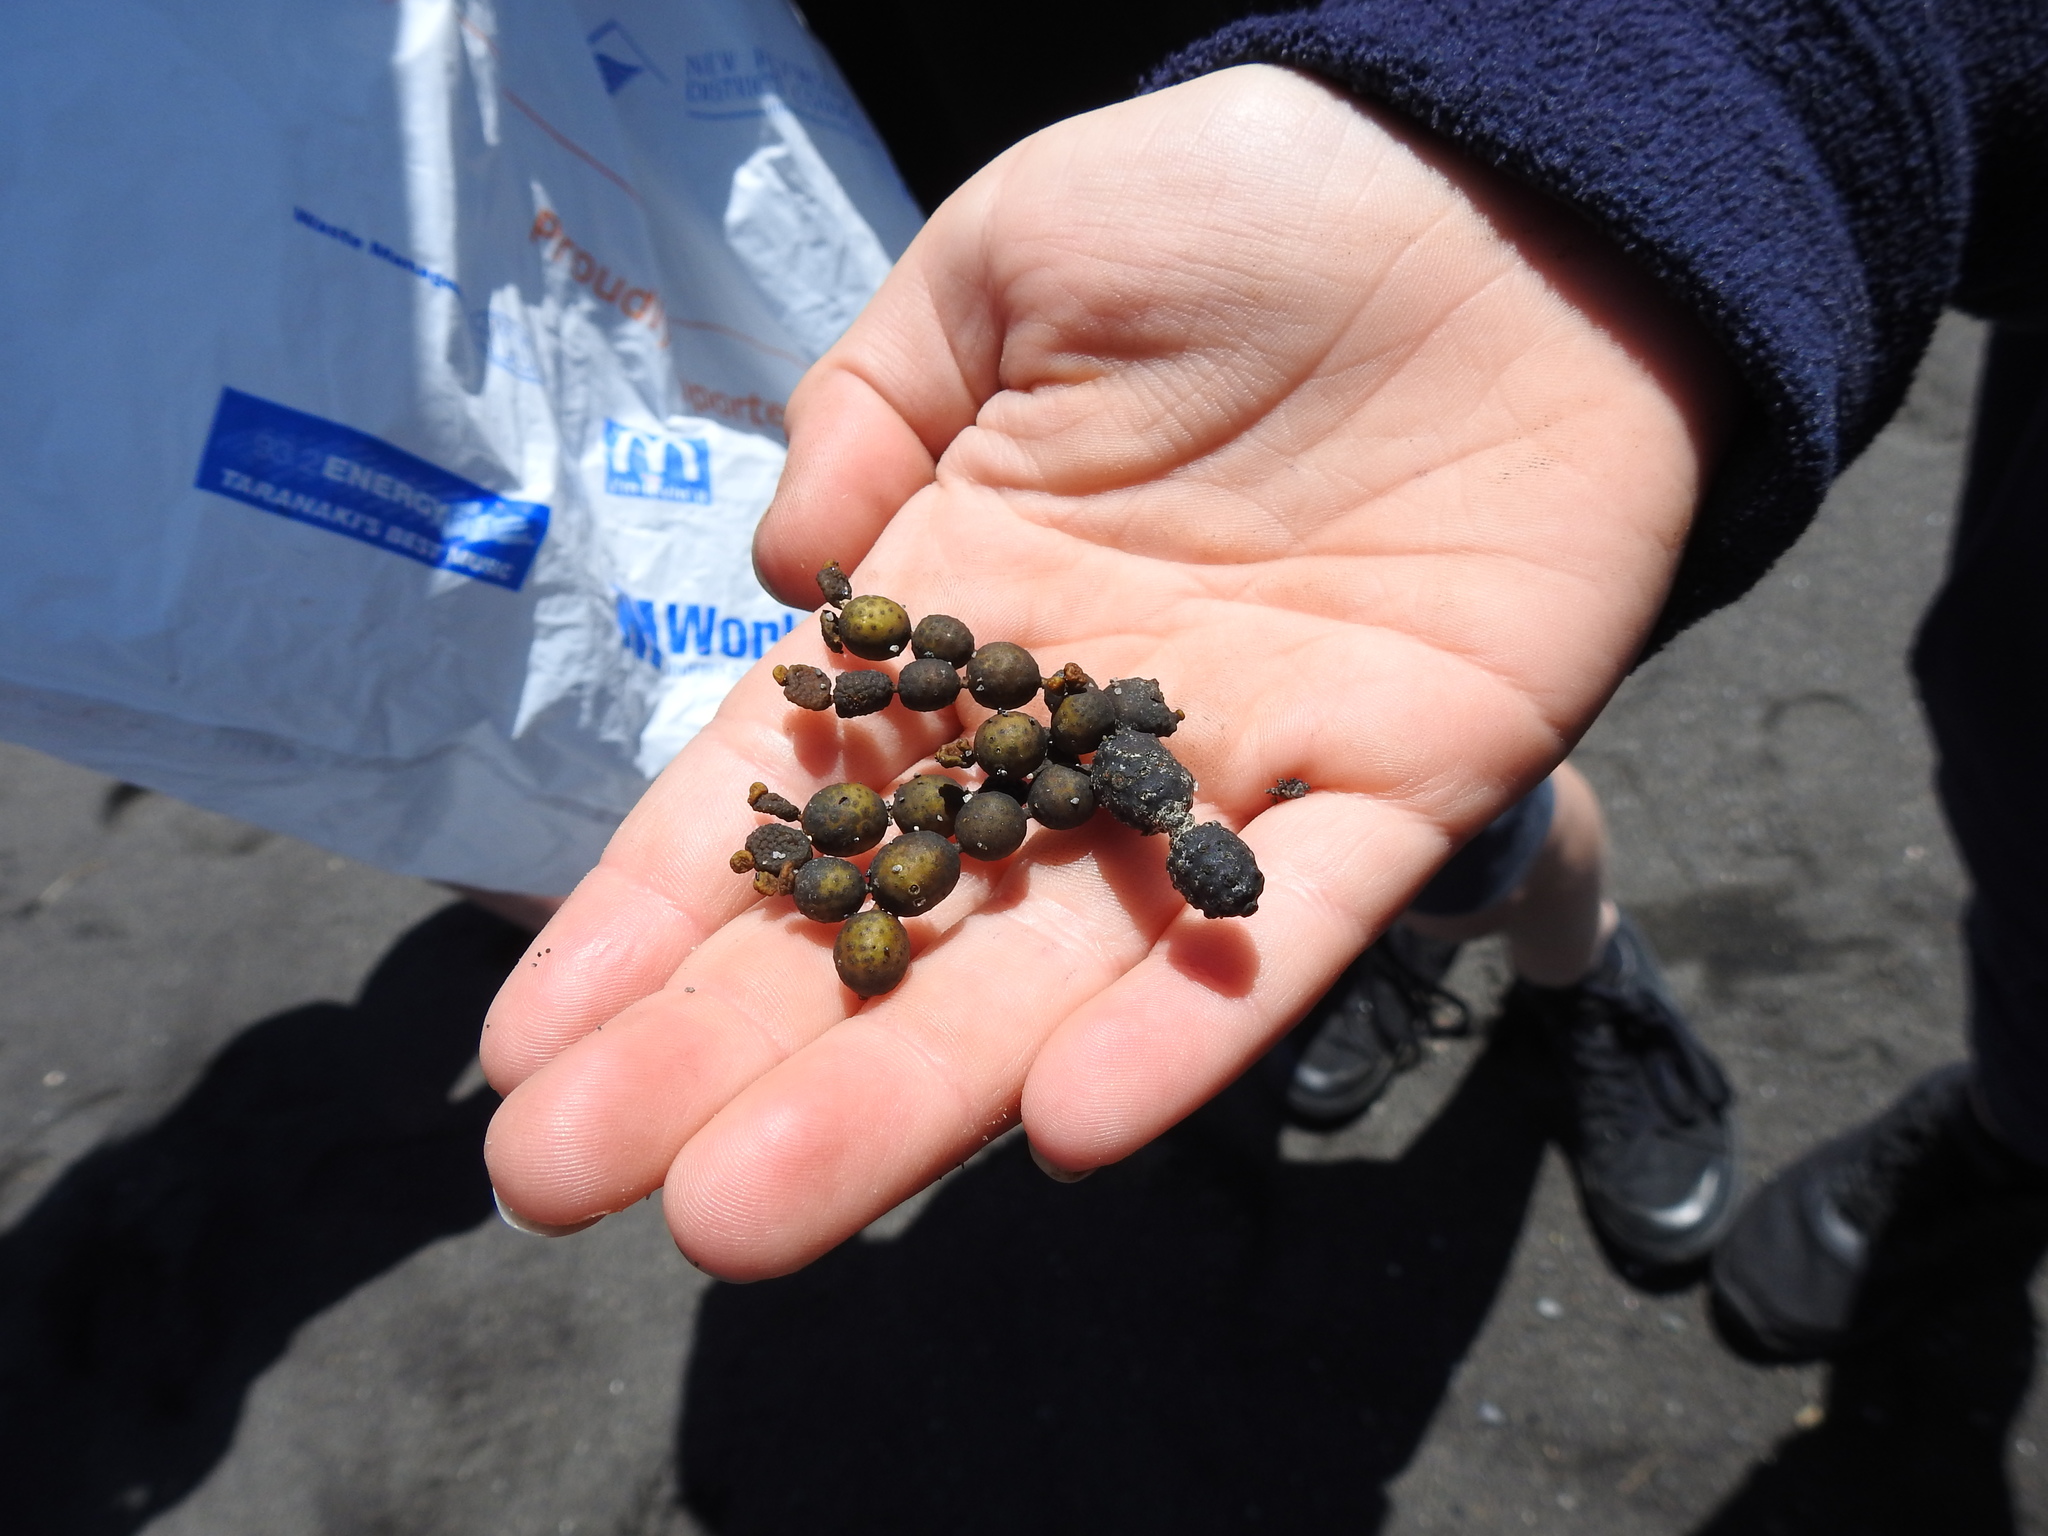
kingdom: Chromista
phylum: Ochrophyta
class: Phaeophyceae
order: Fucales
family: Hormosiraceae
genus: Hormosira
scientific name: Hormosira banksii
